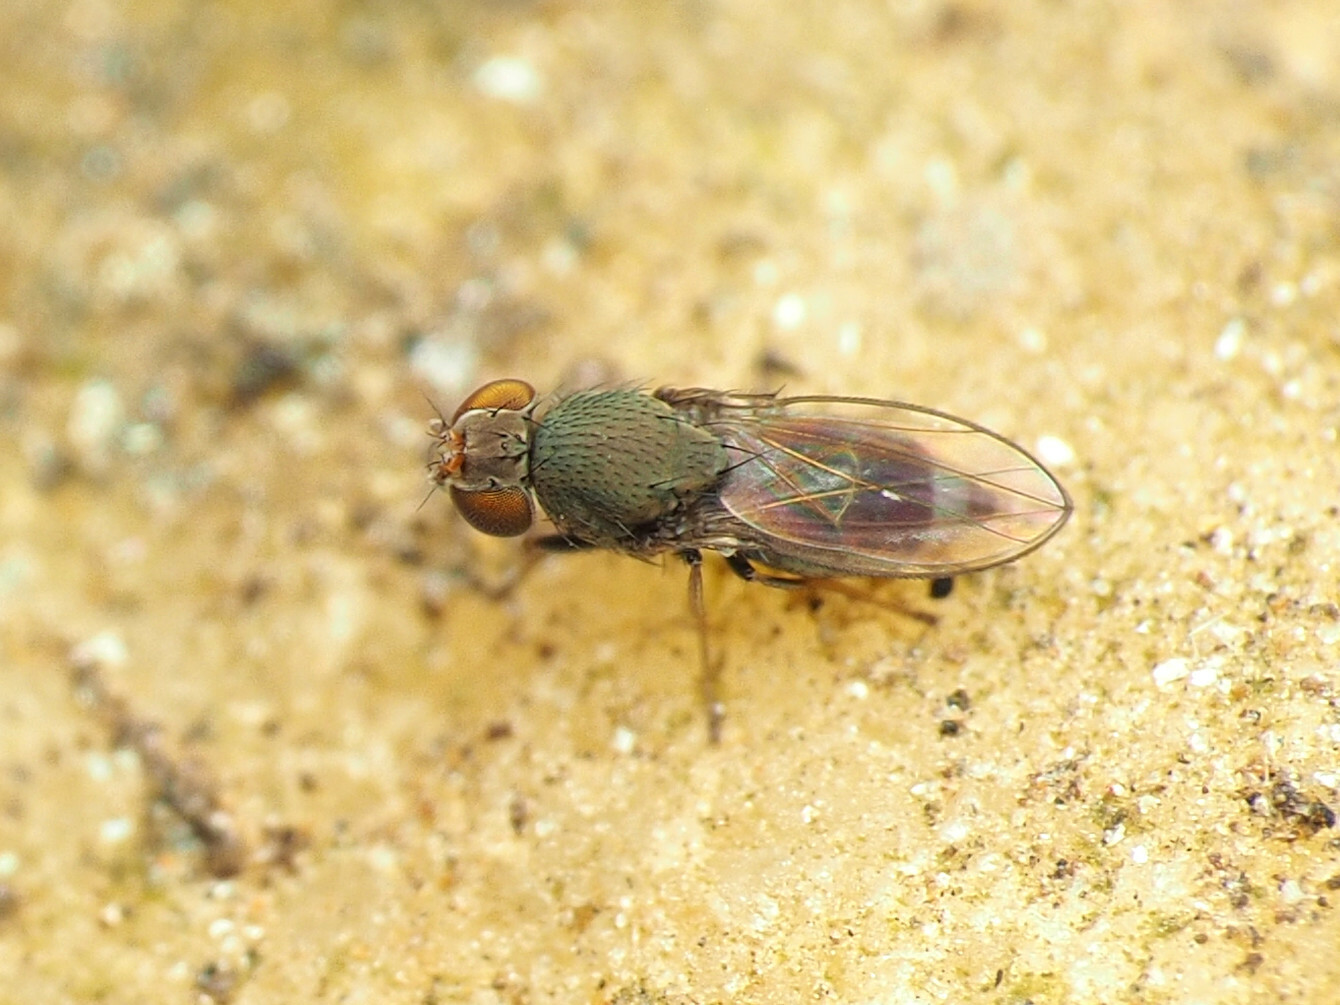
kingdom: Animalia
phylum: Arthropoda
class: Insecta
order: Diptera
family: Ephydridae
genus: Aquachasma
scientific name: Aquachasma leucoproctum
